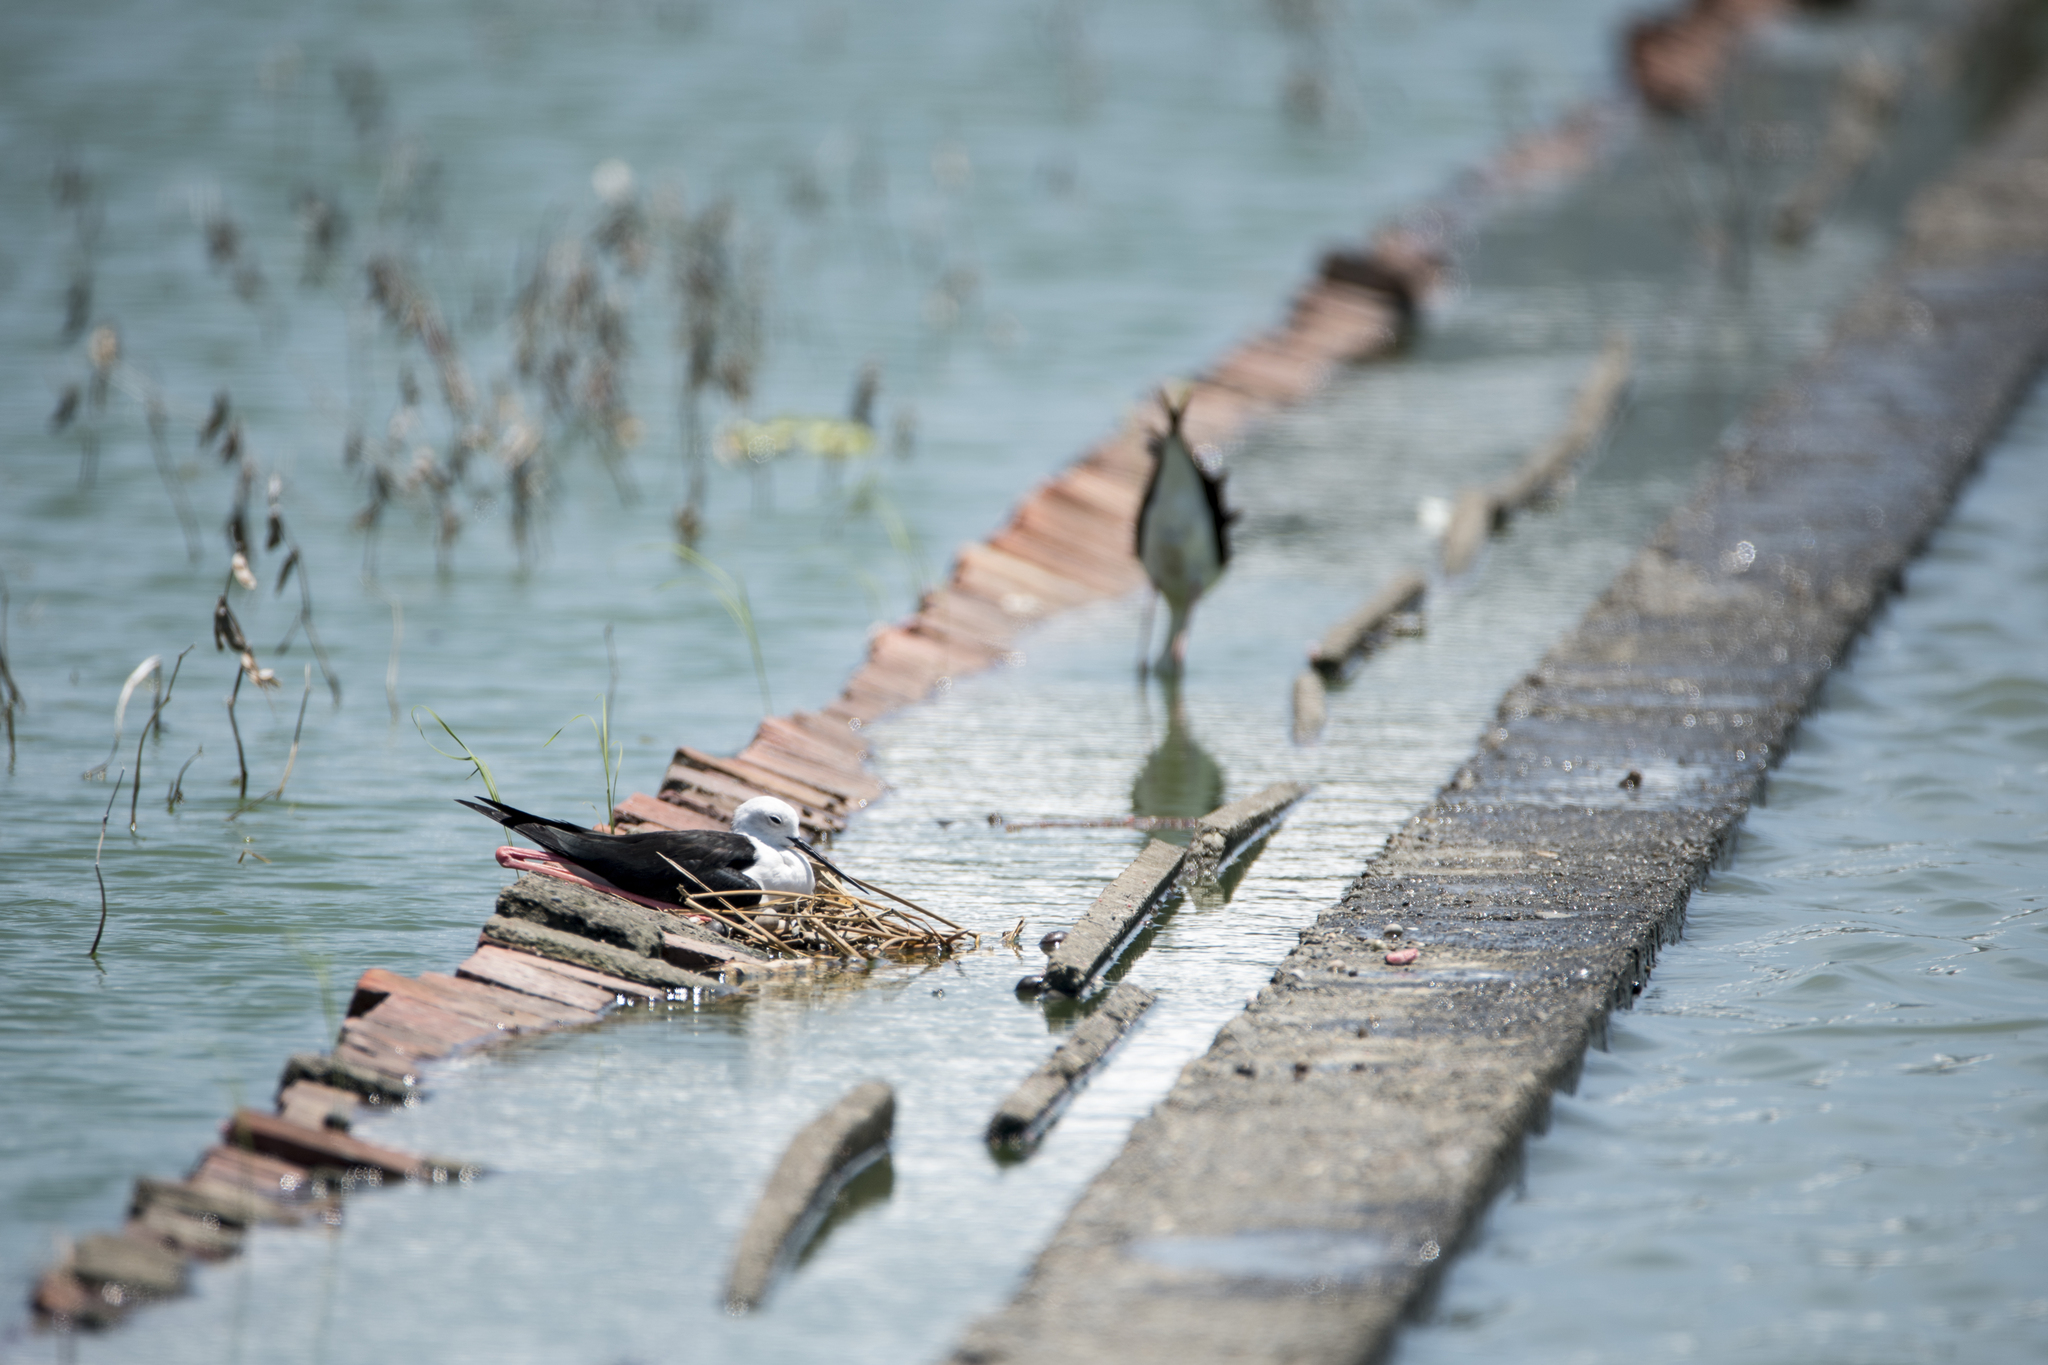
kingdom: Animalia
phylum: Chordata
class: Aves
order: Charadriiformes
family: Recurvirostridae
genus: Himantopus
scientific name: Himantopus himantopus
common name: Black-winged stilt
